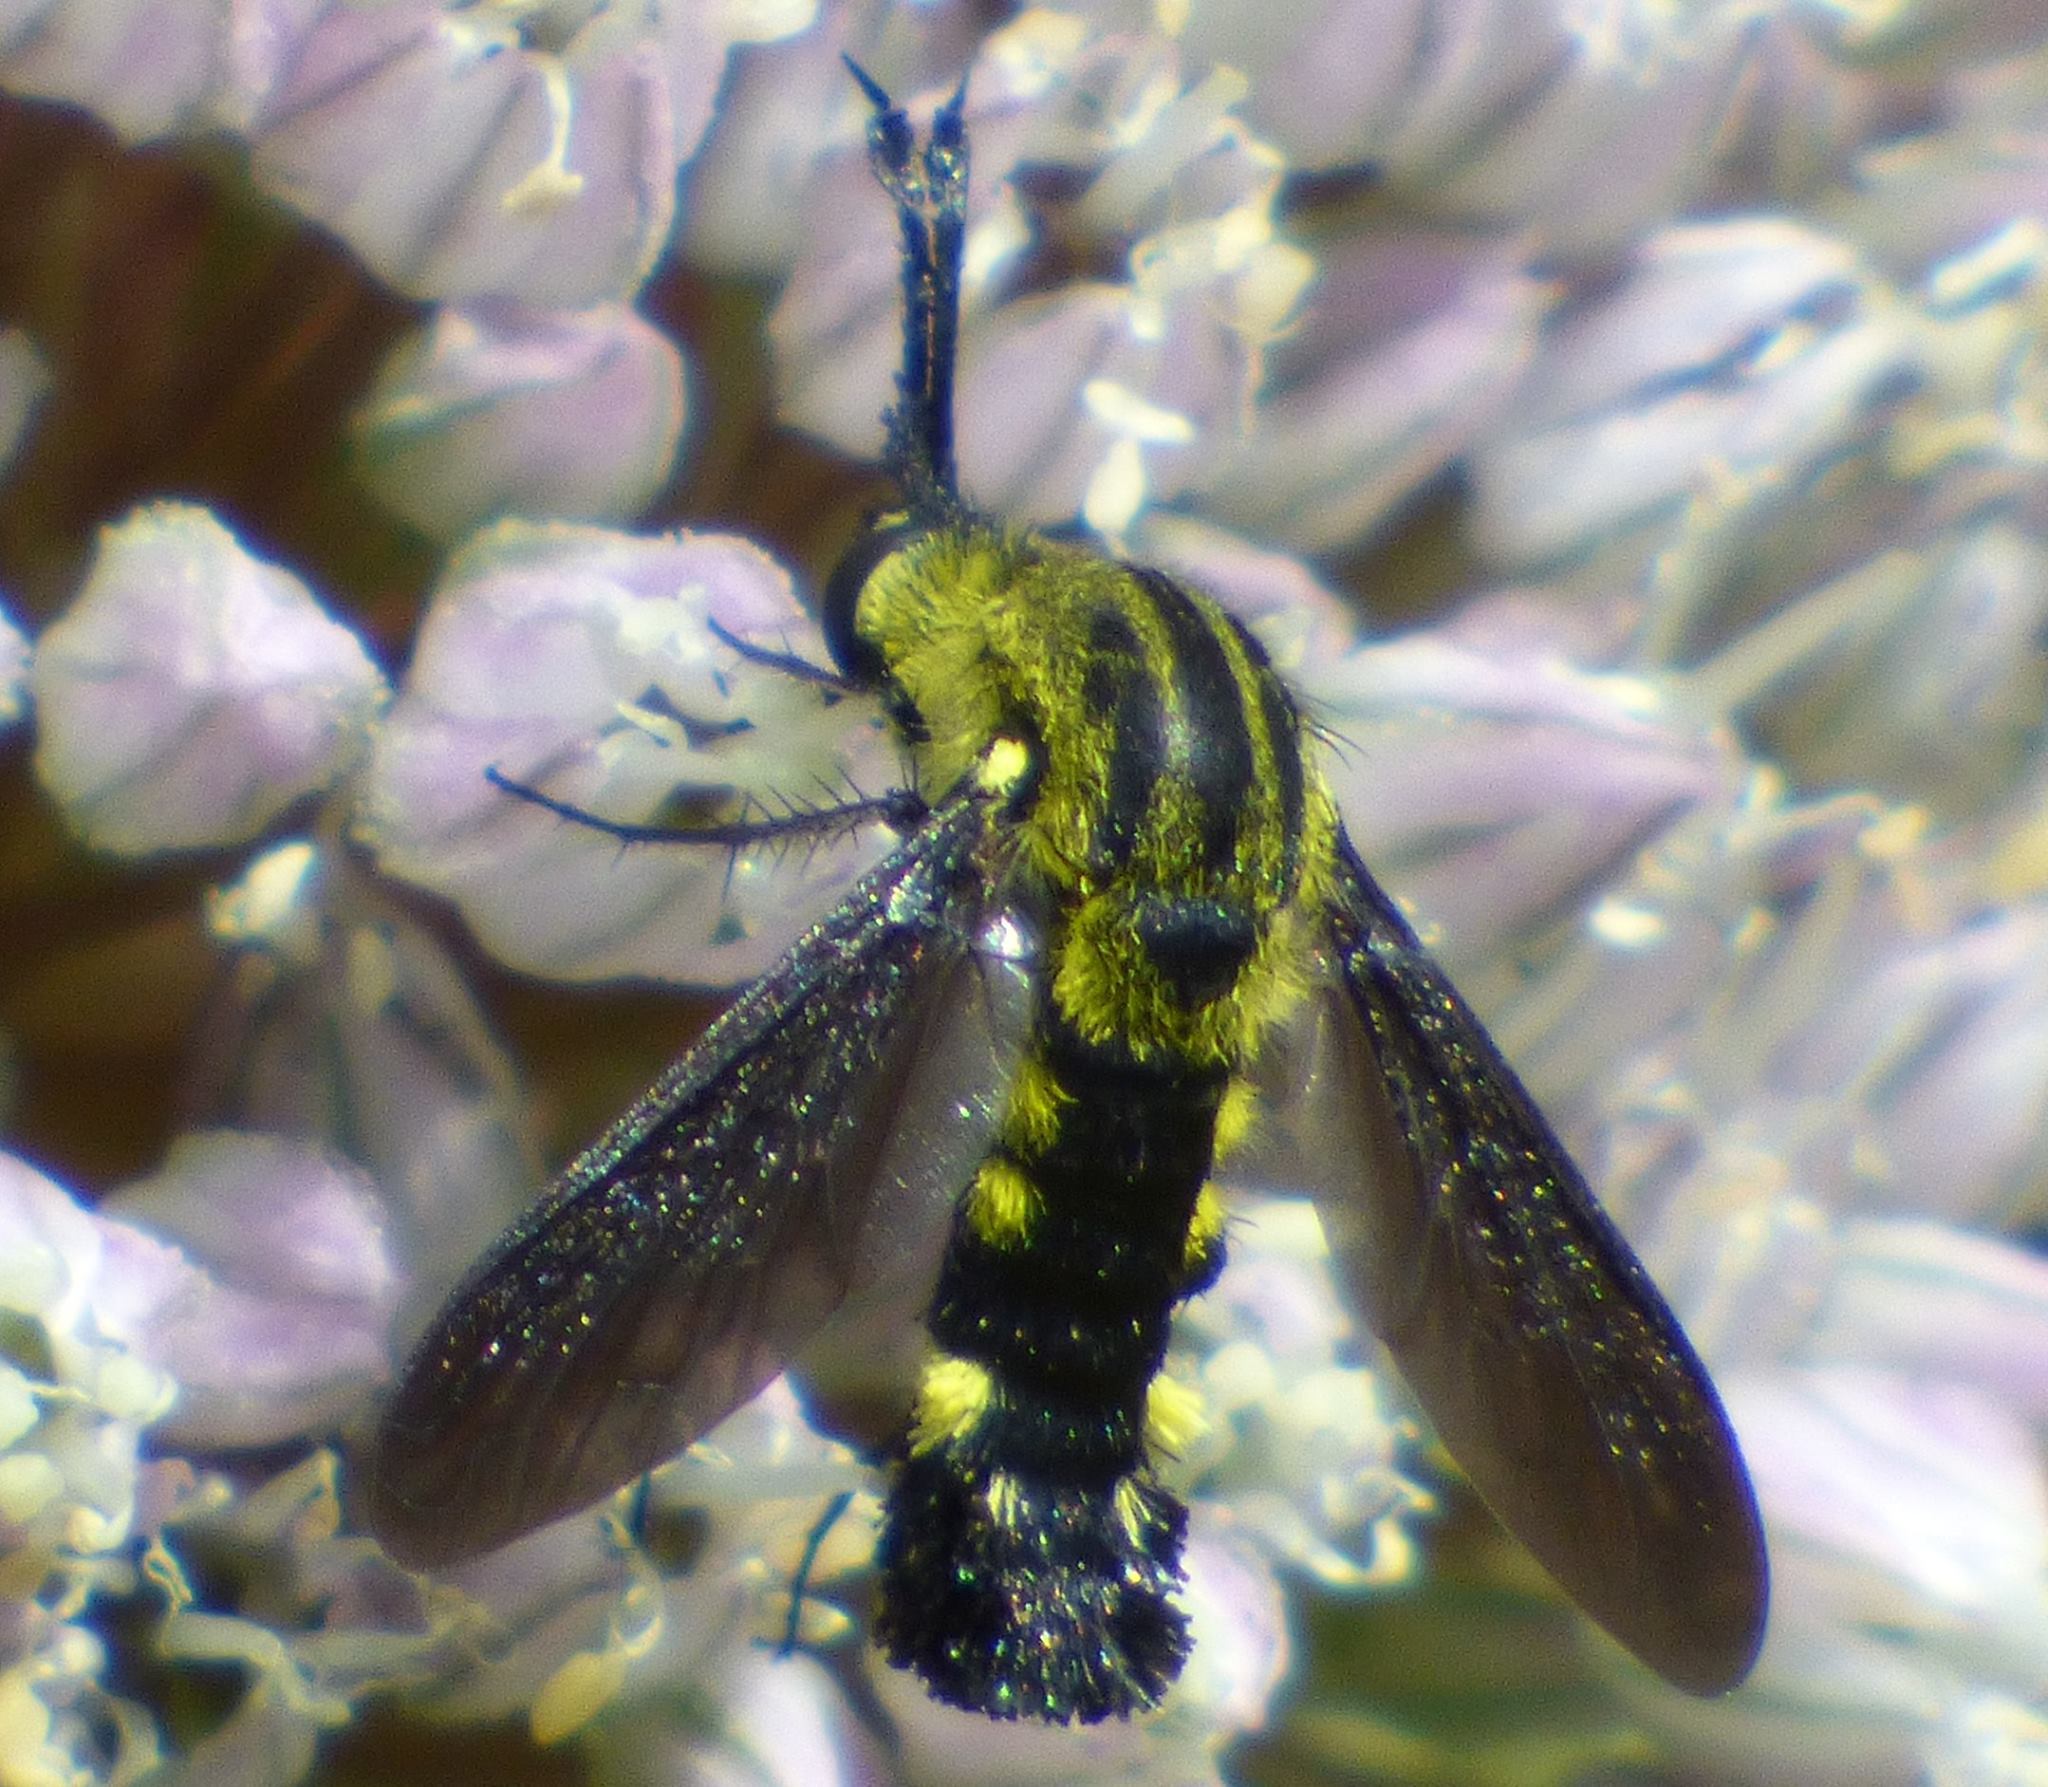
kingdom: Animalia
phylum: Arthropoda
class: Insecta
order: Diptera
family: Bombyliidae
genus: Lepidophora
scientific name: Lepidophora lepidocera
